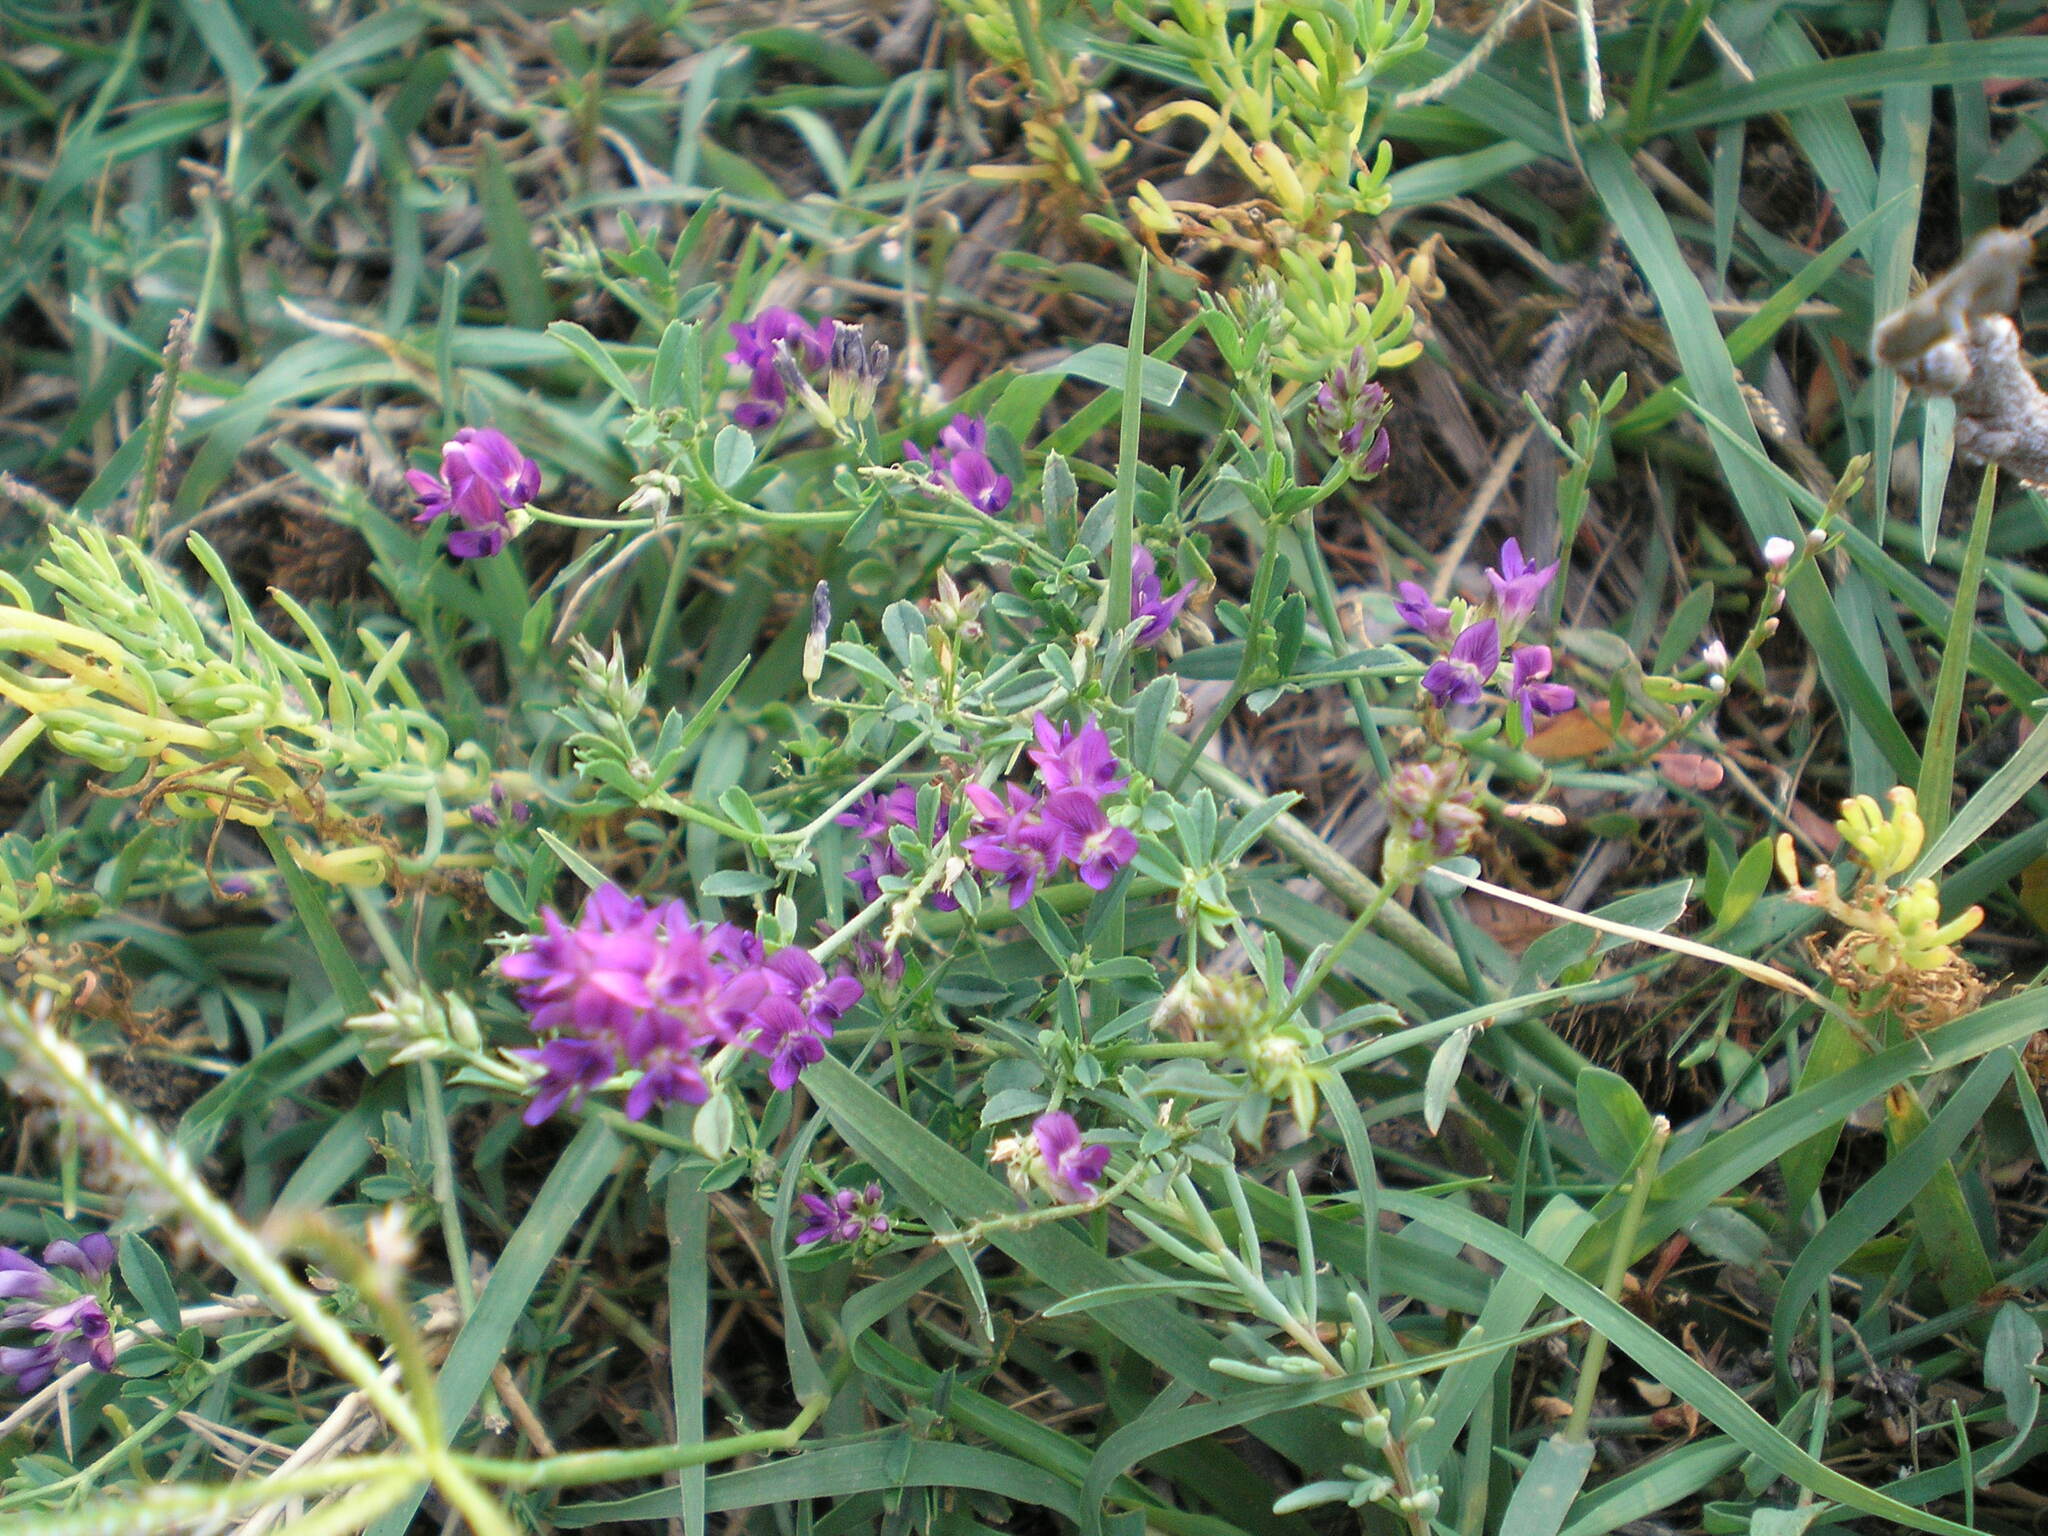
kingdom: Plantae
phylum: Tracheophyta
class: Magnoliopsida
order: Fabales
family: Fabaceae
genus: Medicago
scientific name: Medicago varia
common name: Sand lucerne
